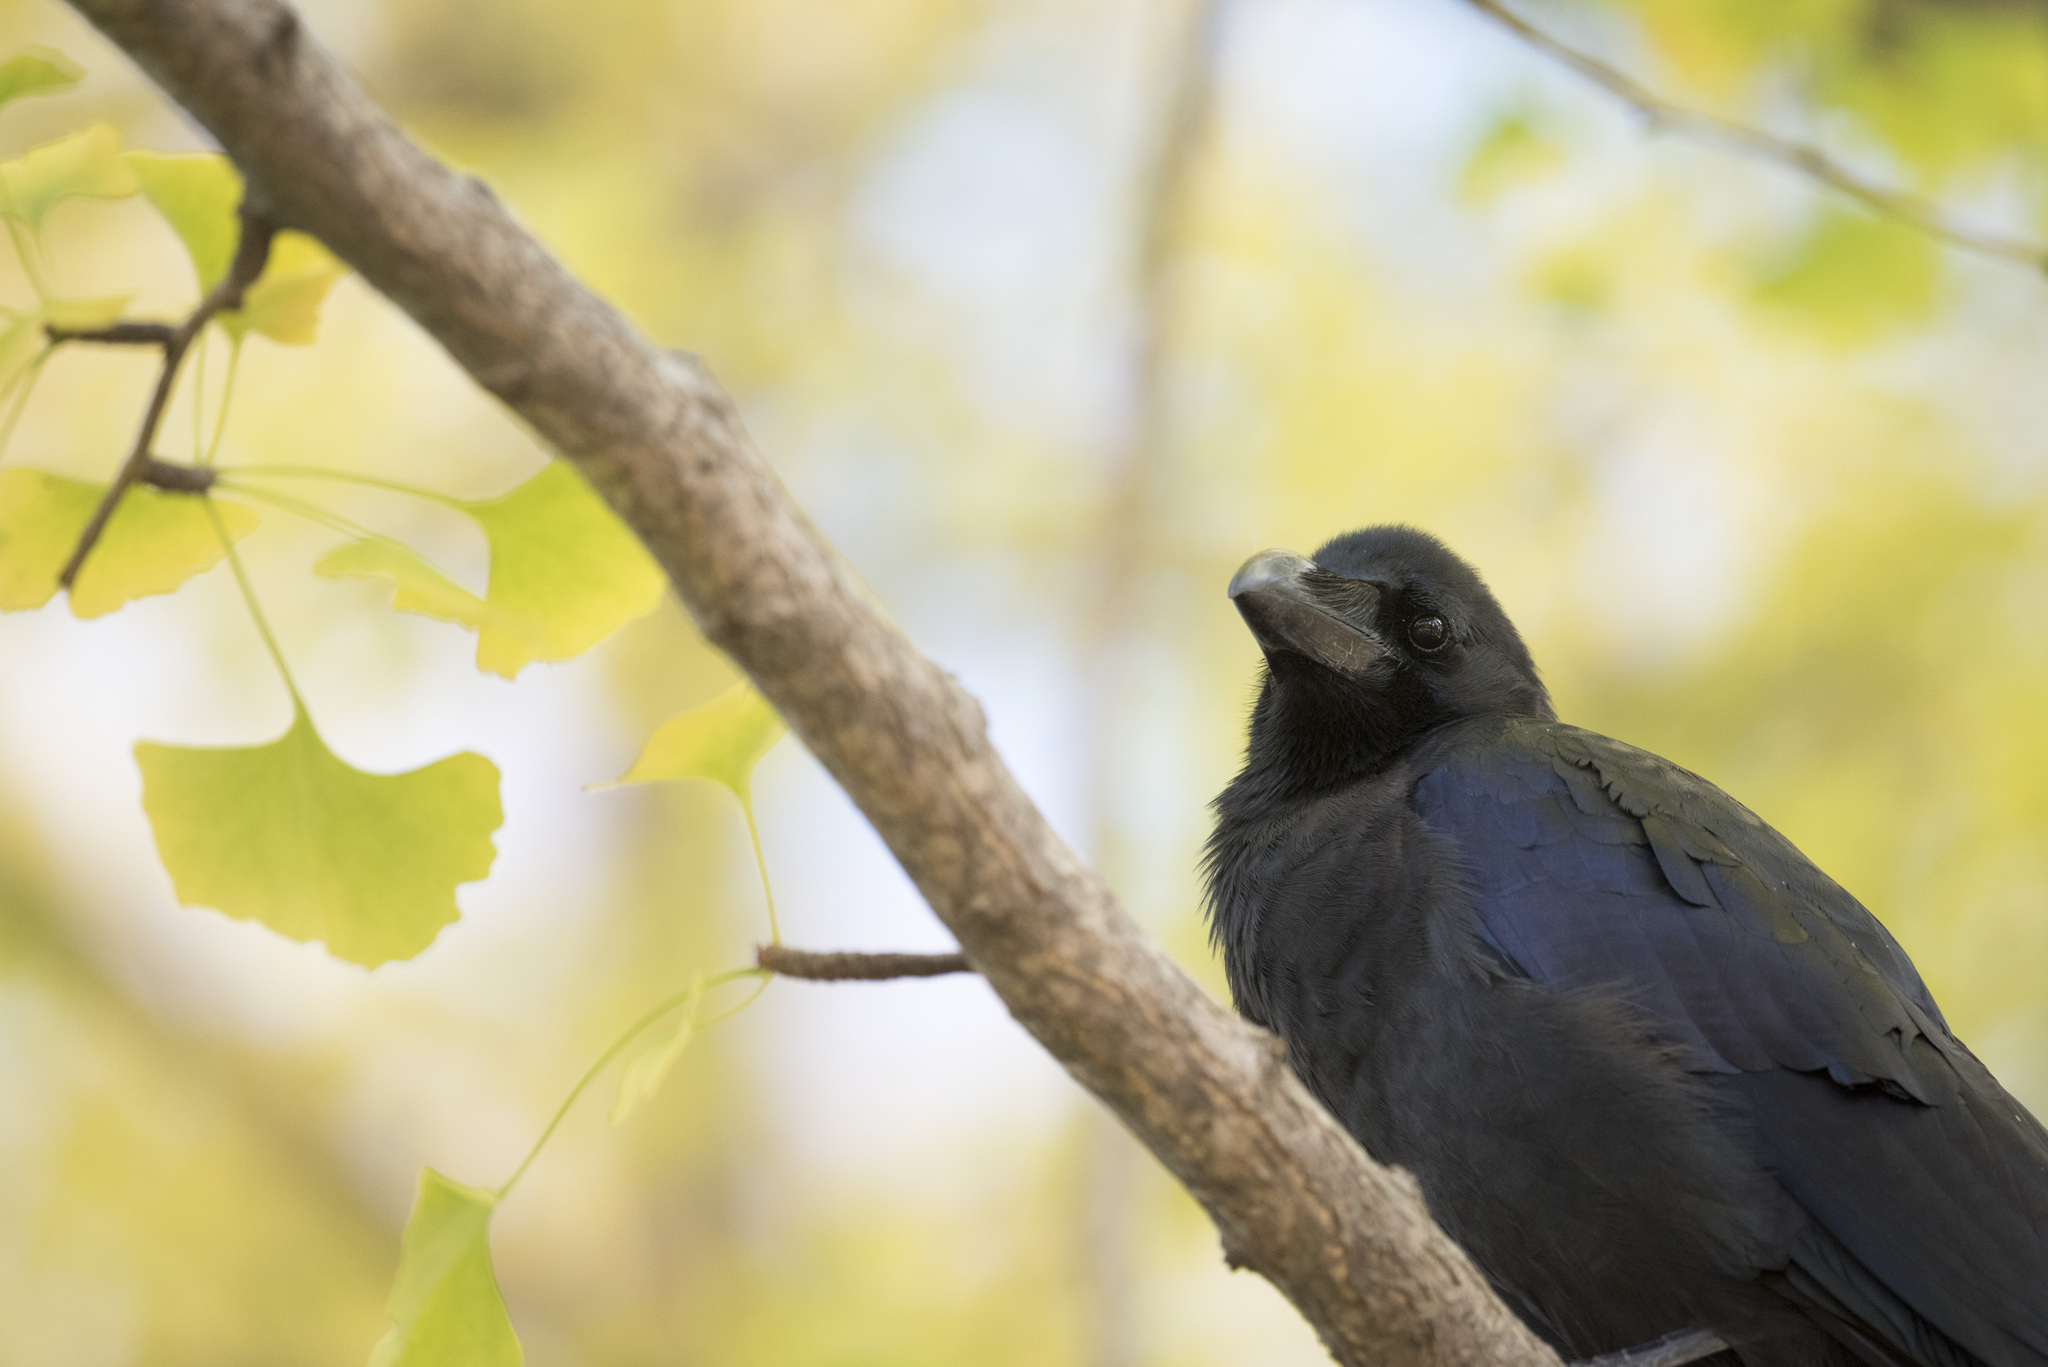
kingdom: Animalia
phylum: Chordata
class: Aves
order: Passeriformes
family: Corvidae
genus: Corvus
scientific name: Corvus macrorhynchos
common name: Large-billed crow
